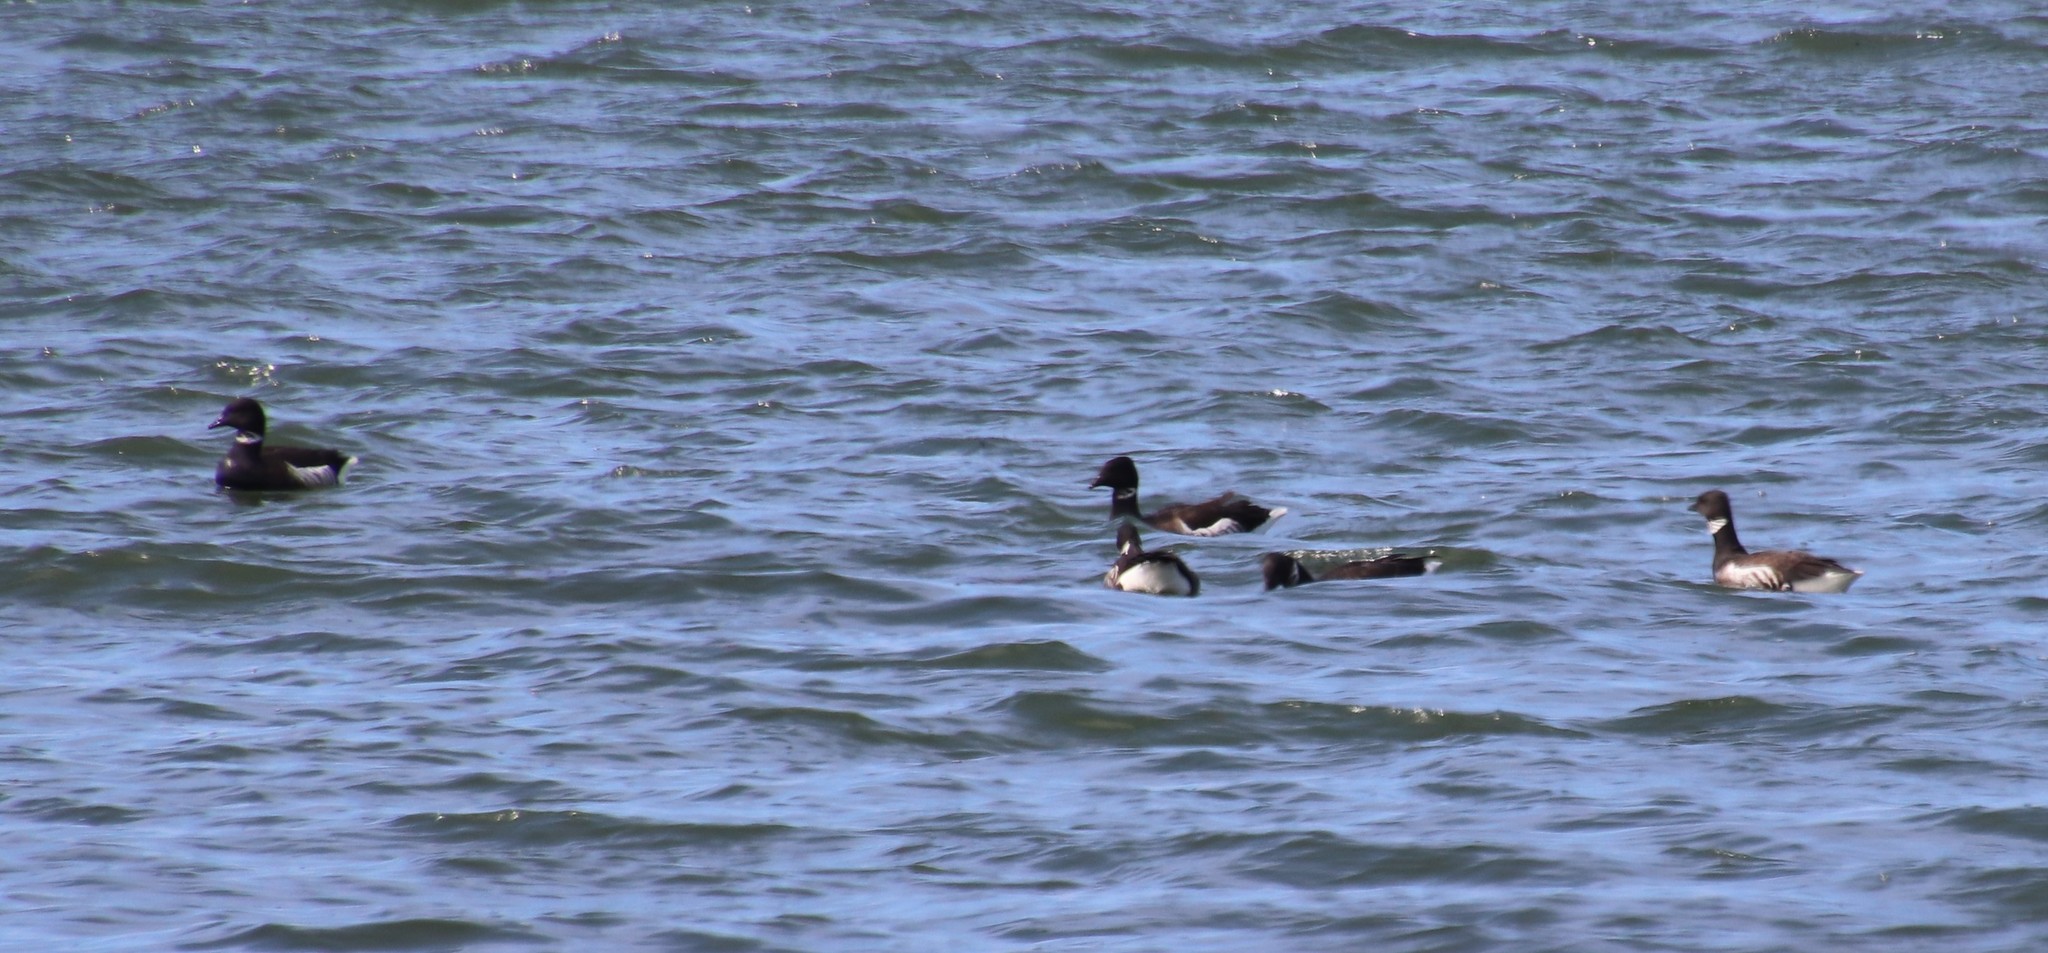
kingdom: Animalia
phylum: Chordata
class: Aves
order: Anseriformes
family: Anatidae
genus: Branta
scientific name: Branta bernicla
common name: Brant goose
